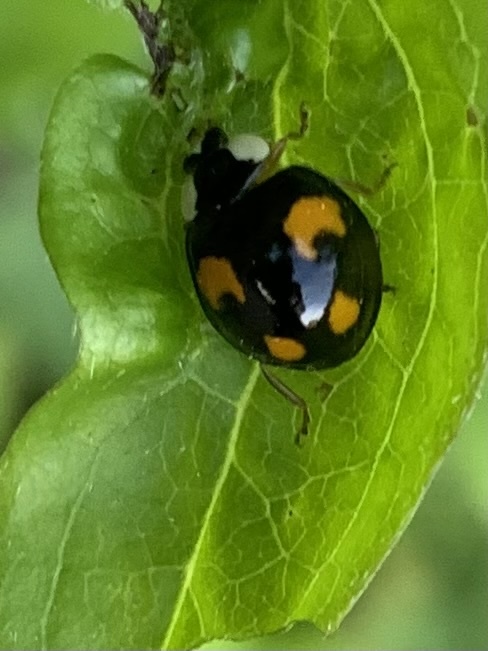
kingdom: Animalia
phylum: Arthropoda
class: Insecta
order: Coleoptera
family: Coccinellidae
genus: Harmonia
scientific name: Harmonia axyridis
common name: Harlequin ladybird
